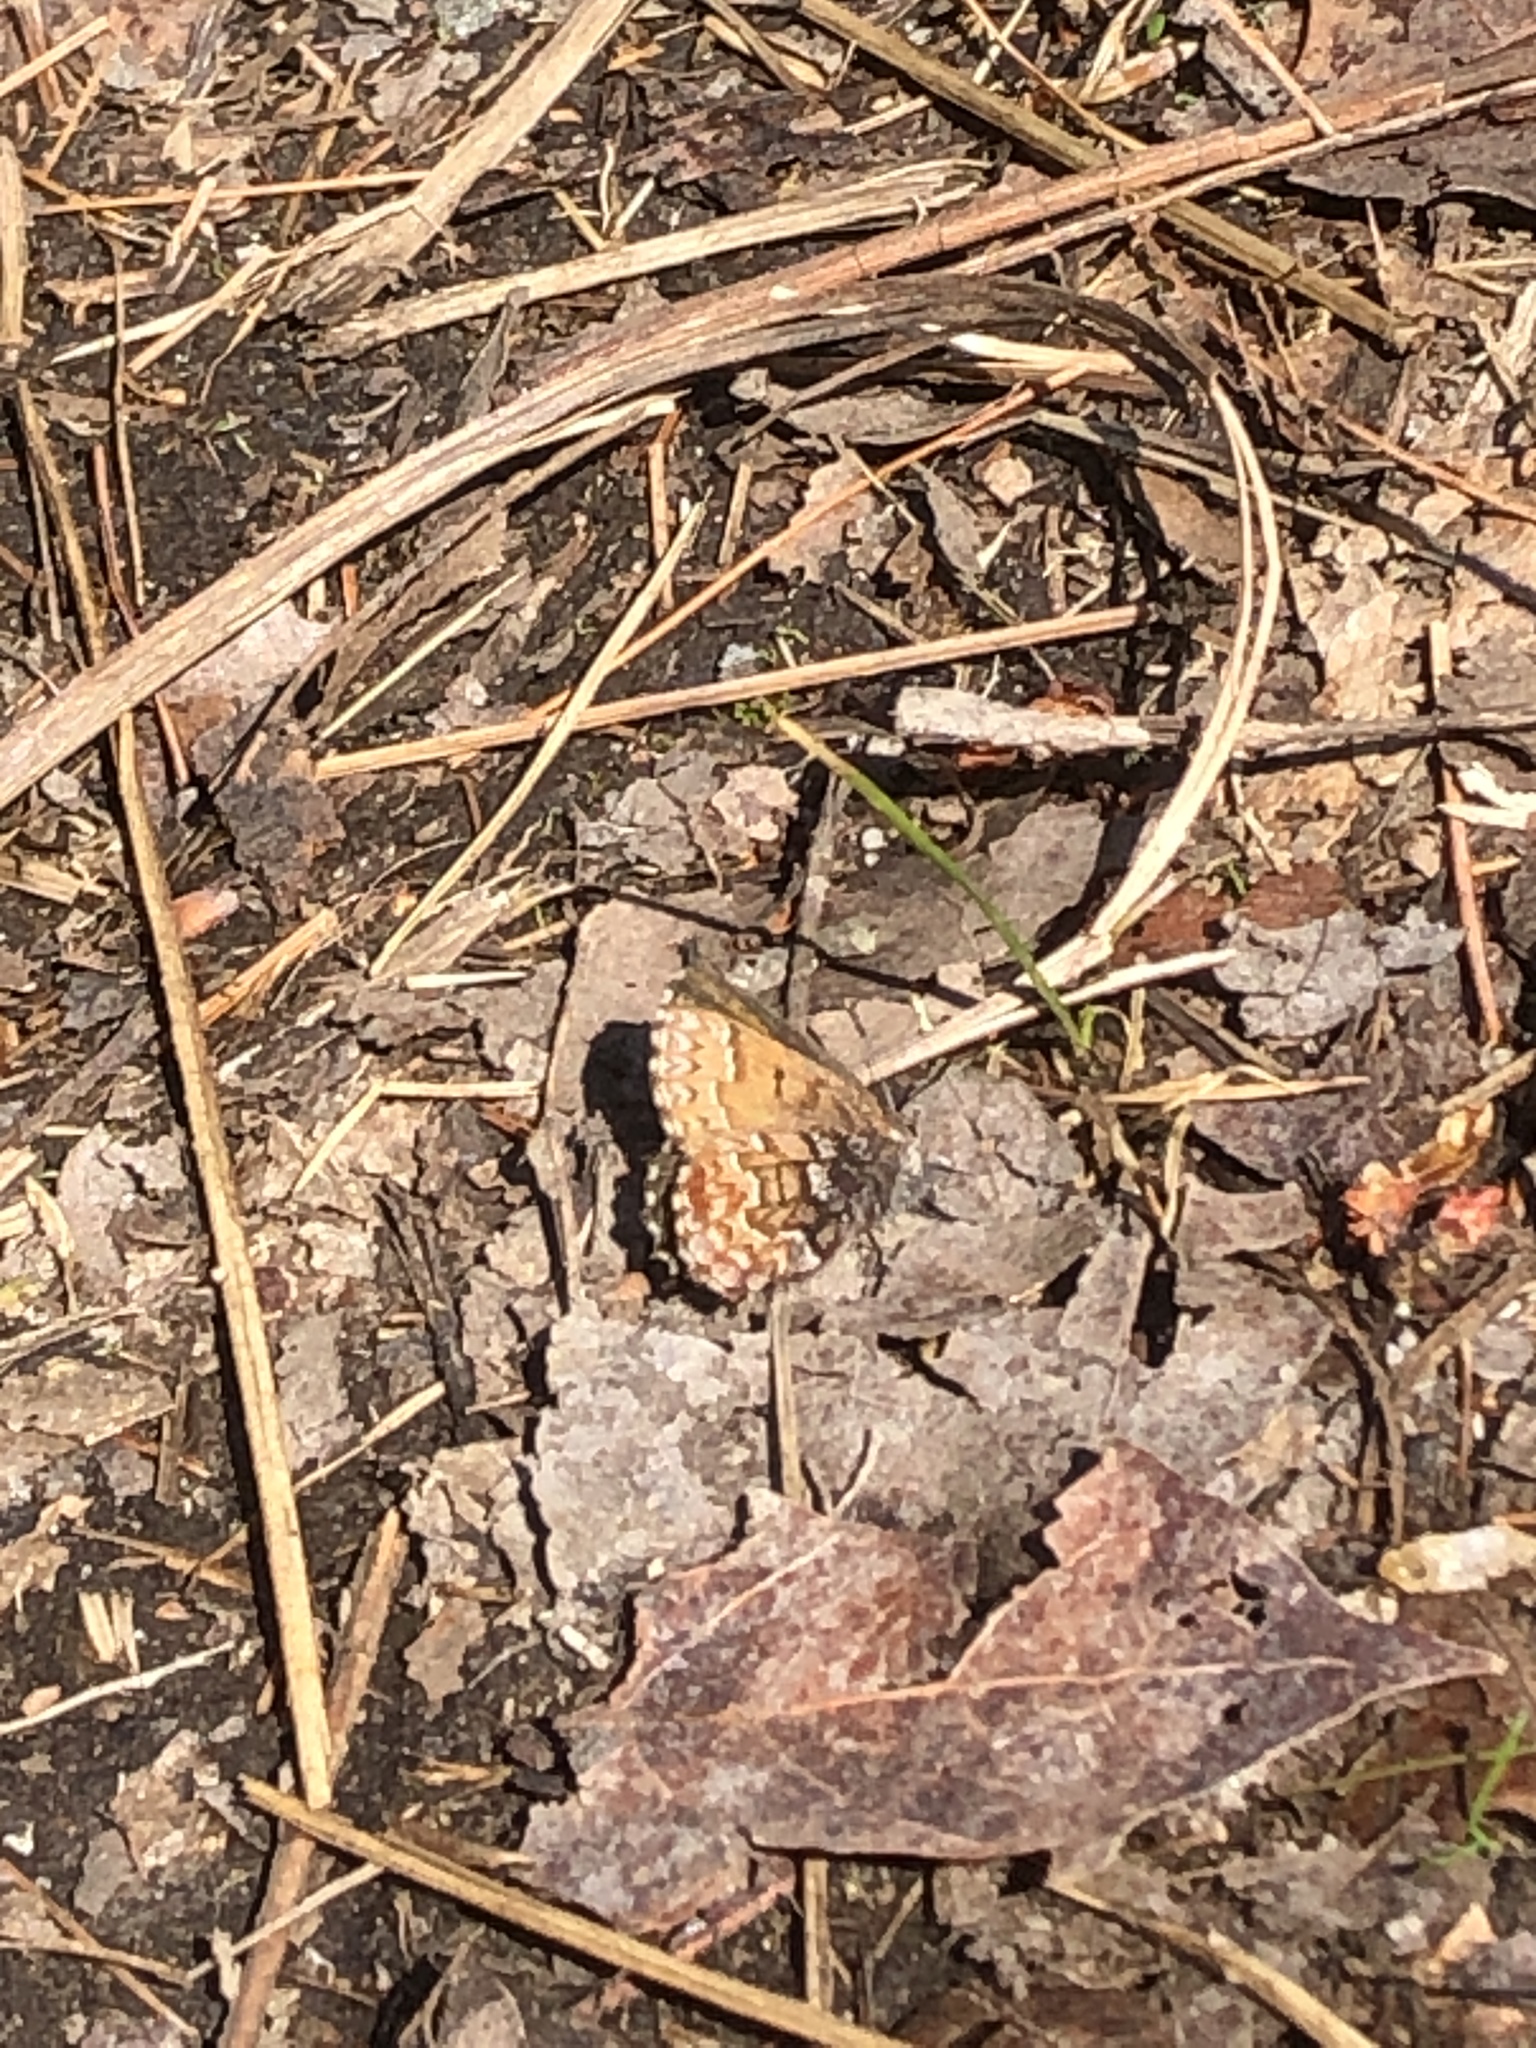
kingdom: Animalia
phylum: Arthropoda
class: Insecta
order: Lepidoptera
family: Lycaenidae
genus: Incisalia
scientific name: Incisalia niphon
